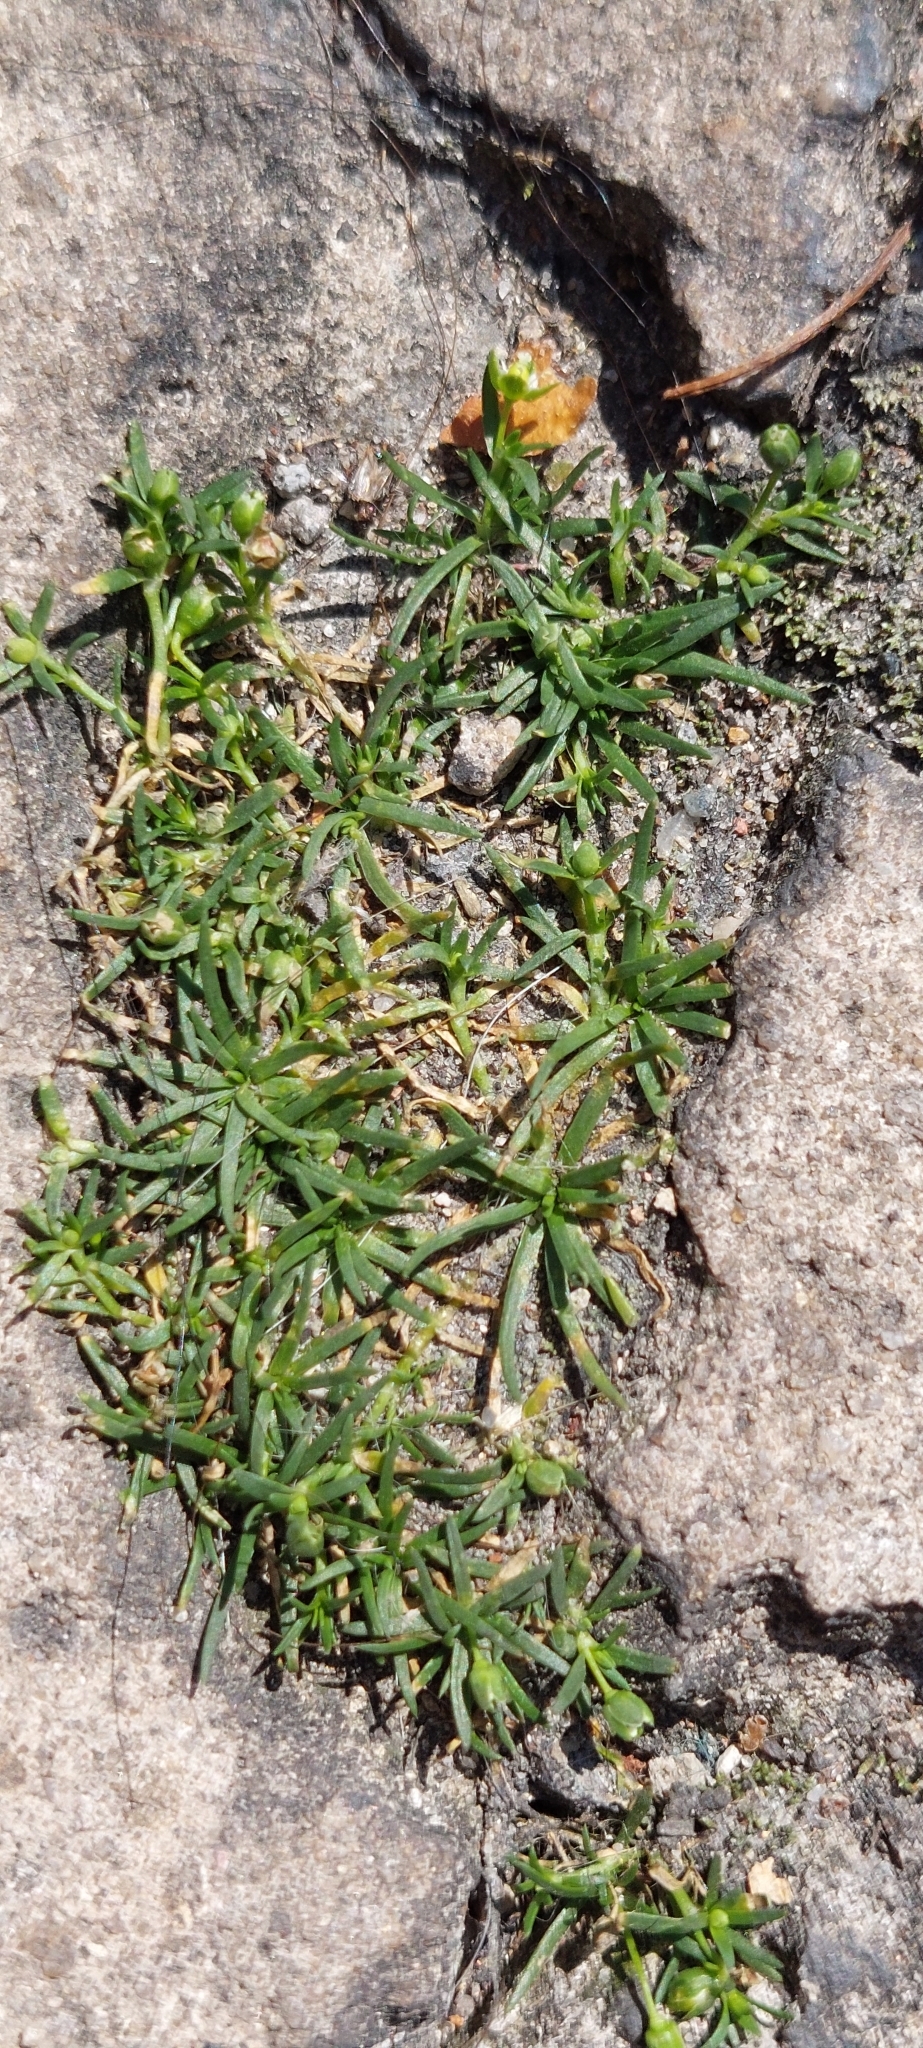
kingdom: Plantae
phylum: Tracheophyta
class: Magnoliopsida
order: Caryophyllales
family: Caryophyllaceae
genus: Sagina
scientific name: Sagina procumbens
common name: Procumbent pearlwort
